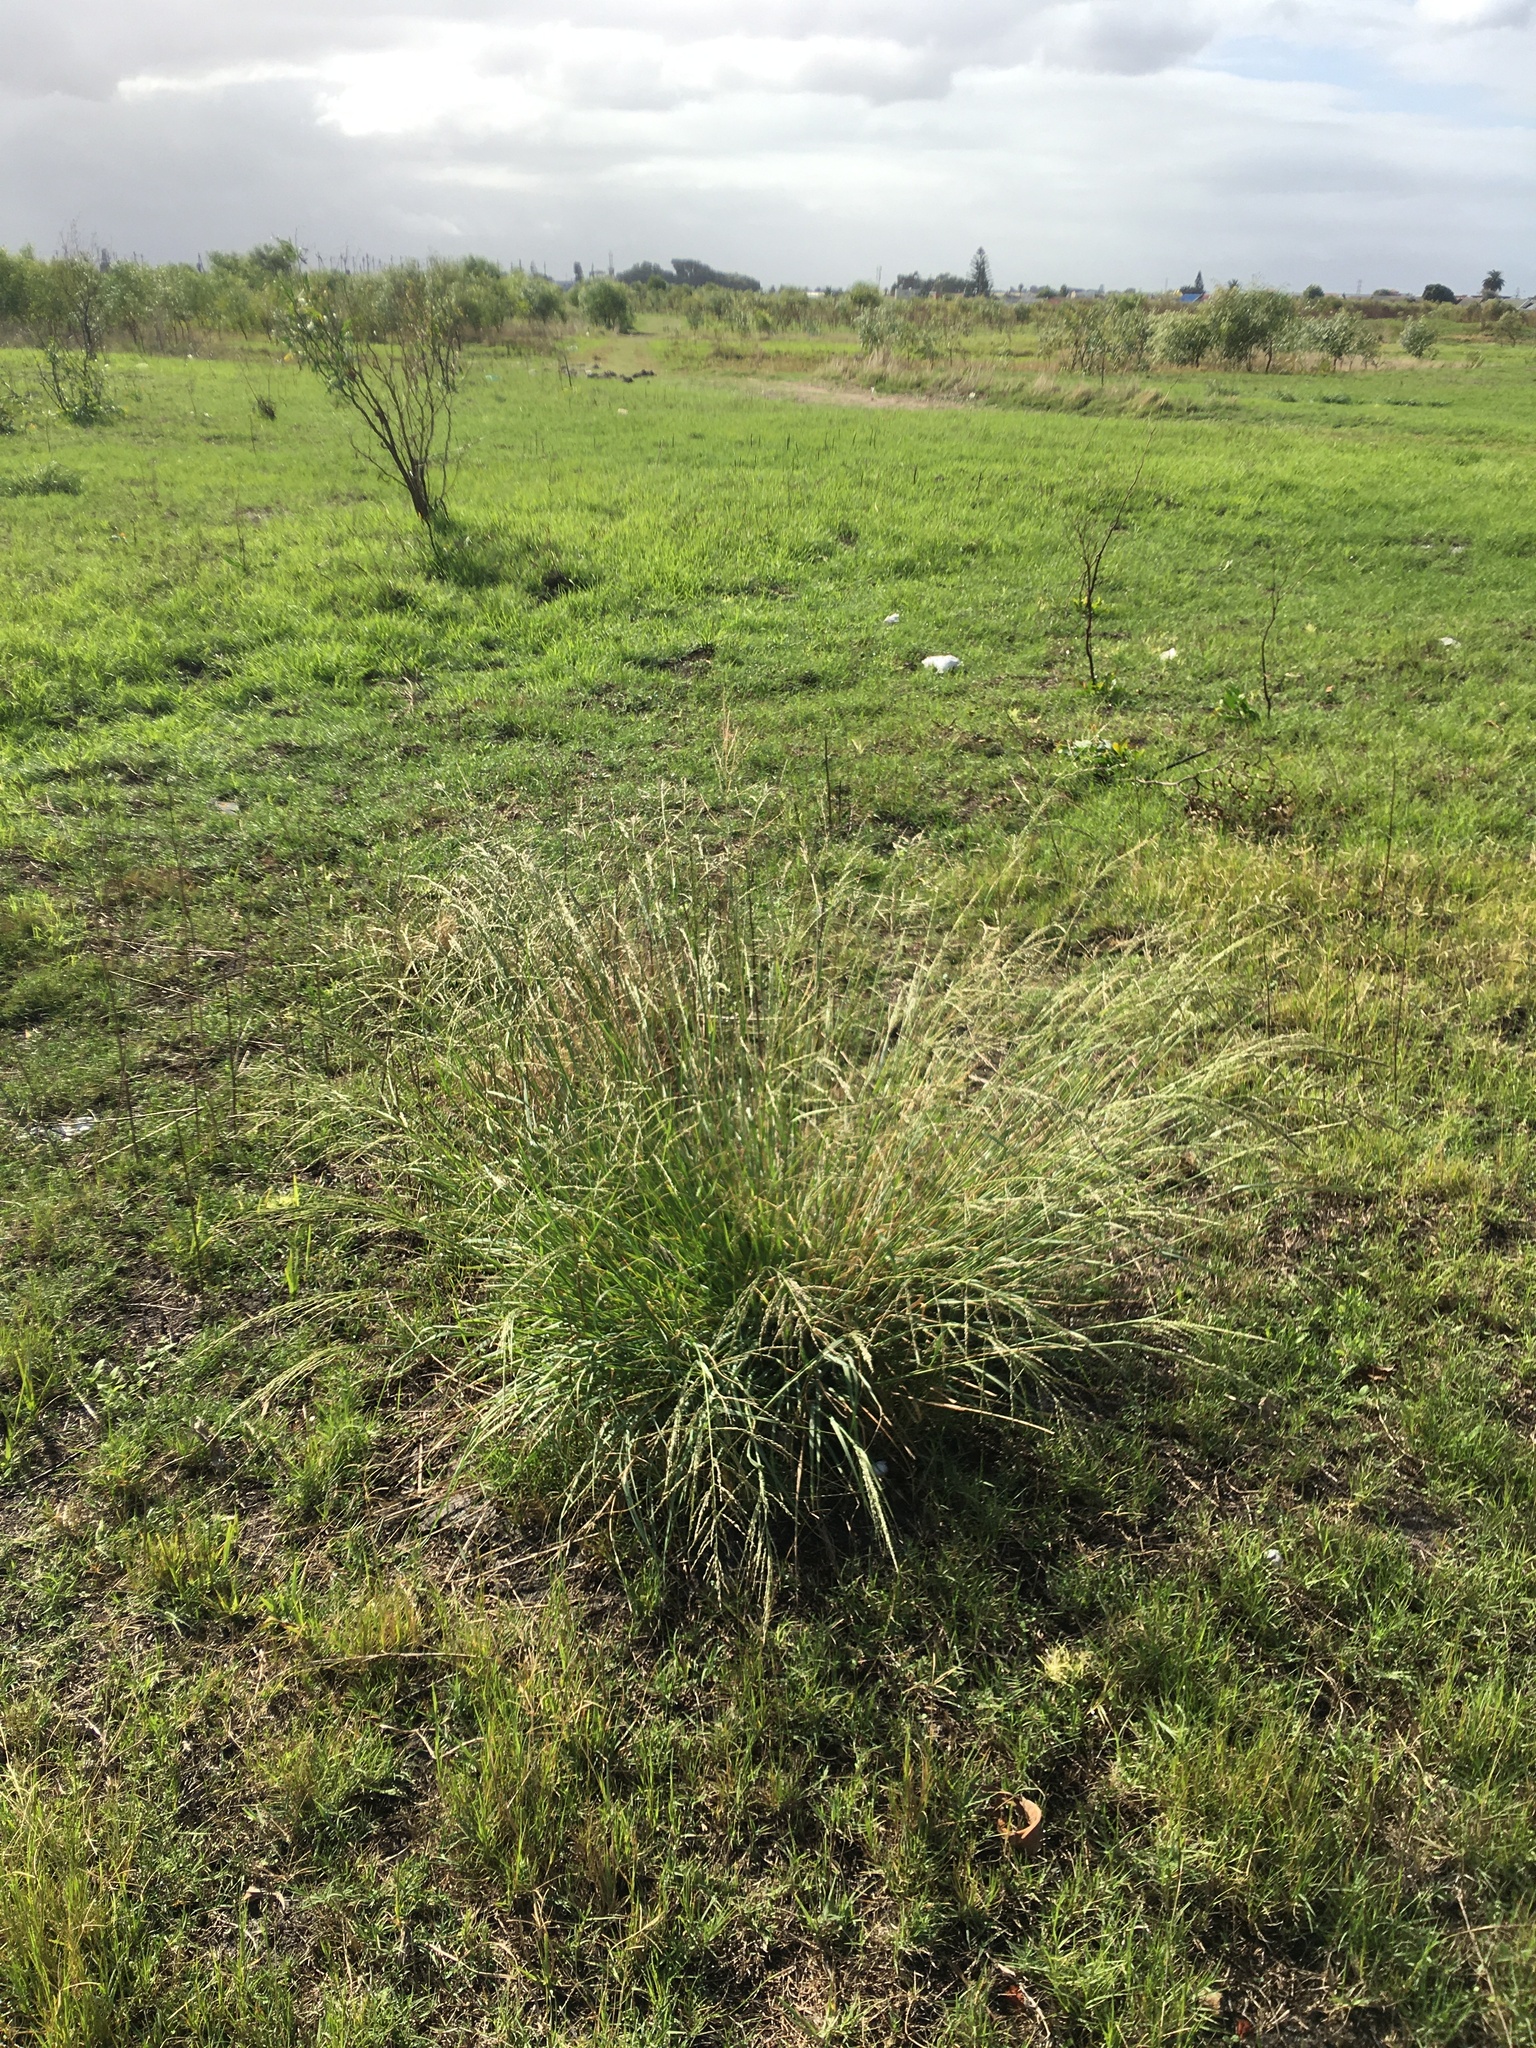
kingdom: Plantae
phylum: Tracheophyta
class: Liliopsida
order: Poales
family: Poaceae
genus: Eragrostis
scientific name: Eragrostis curvula
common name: African love-grass
